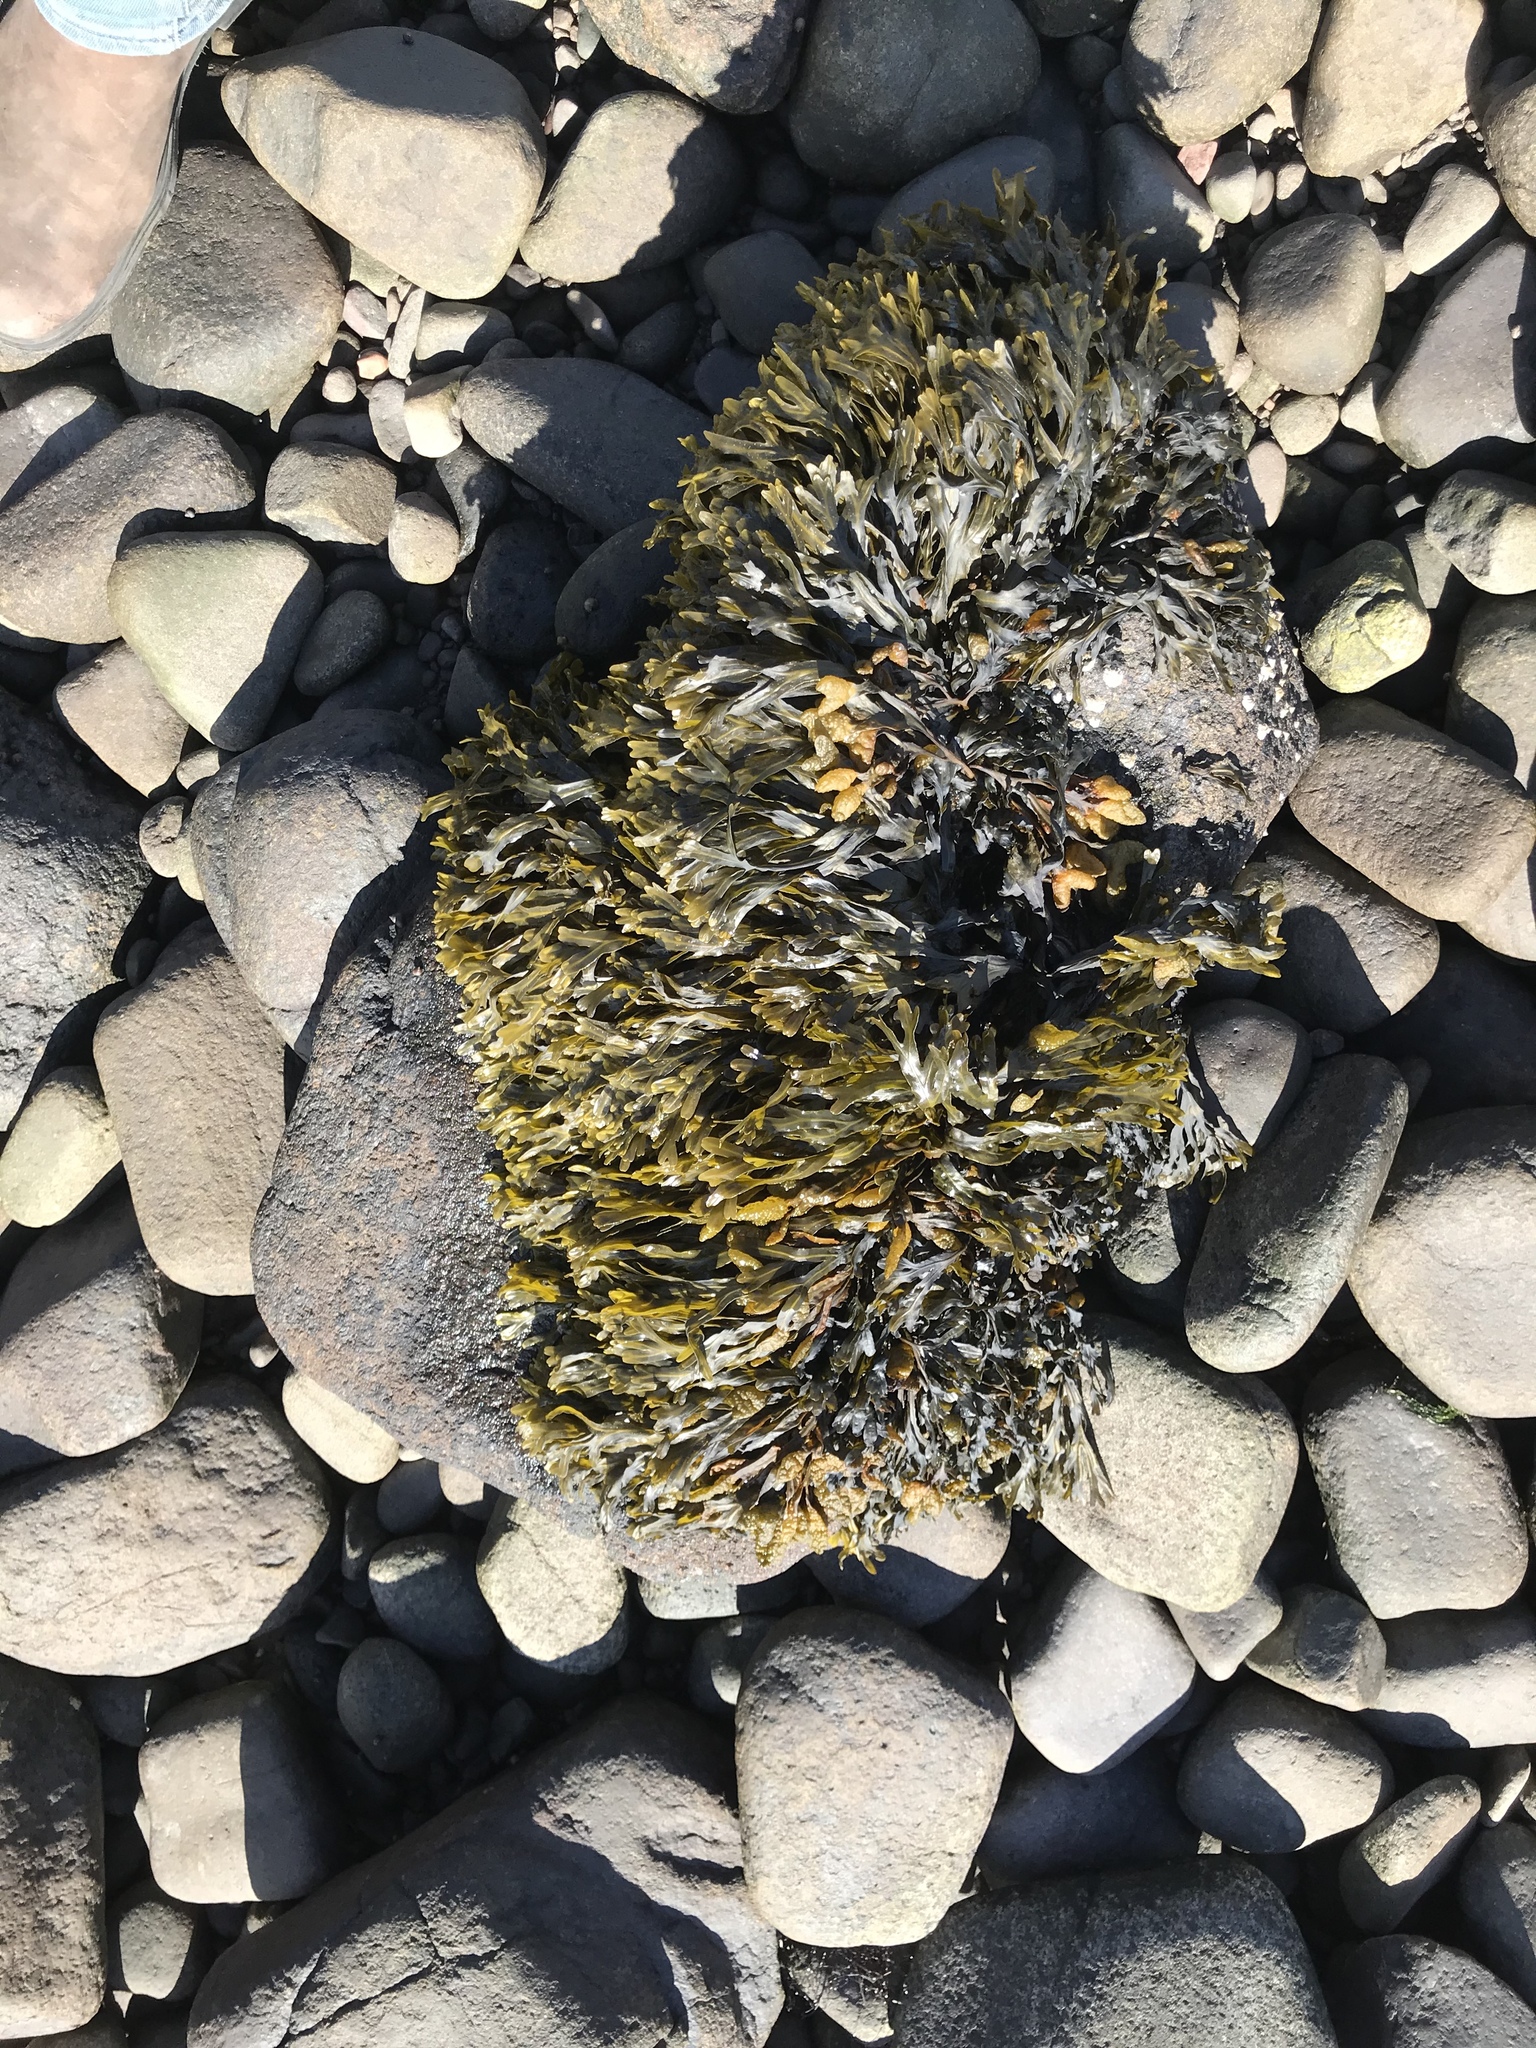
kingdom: Chromista
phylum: Ochrophyta
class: Phaeophyceae
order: Fucales
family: Fucaceae
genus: Fucus
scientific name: Fucus distichus
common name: Rockweed
